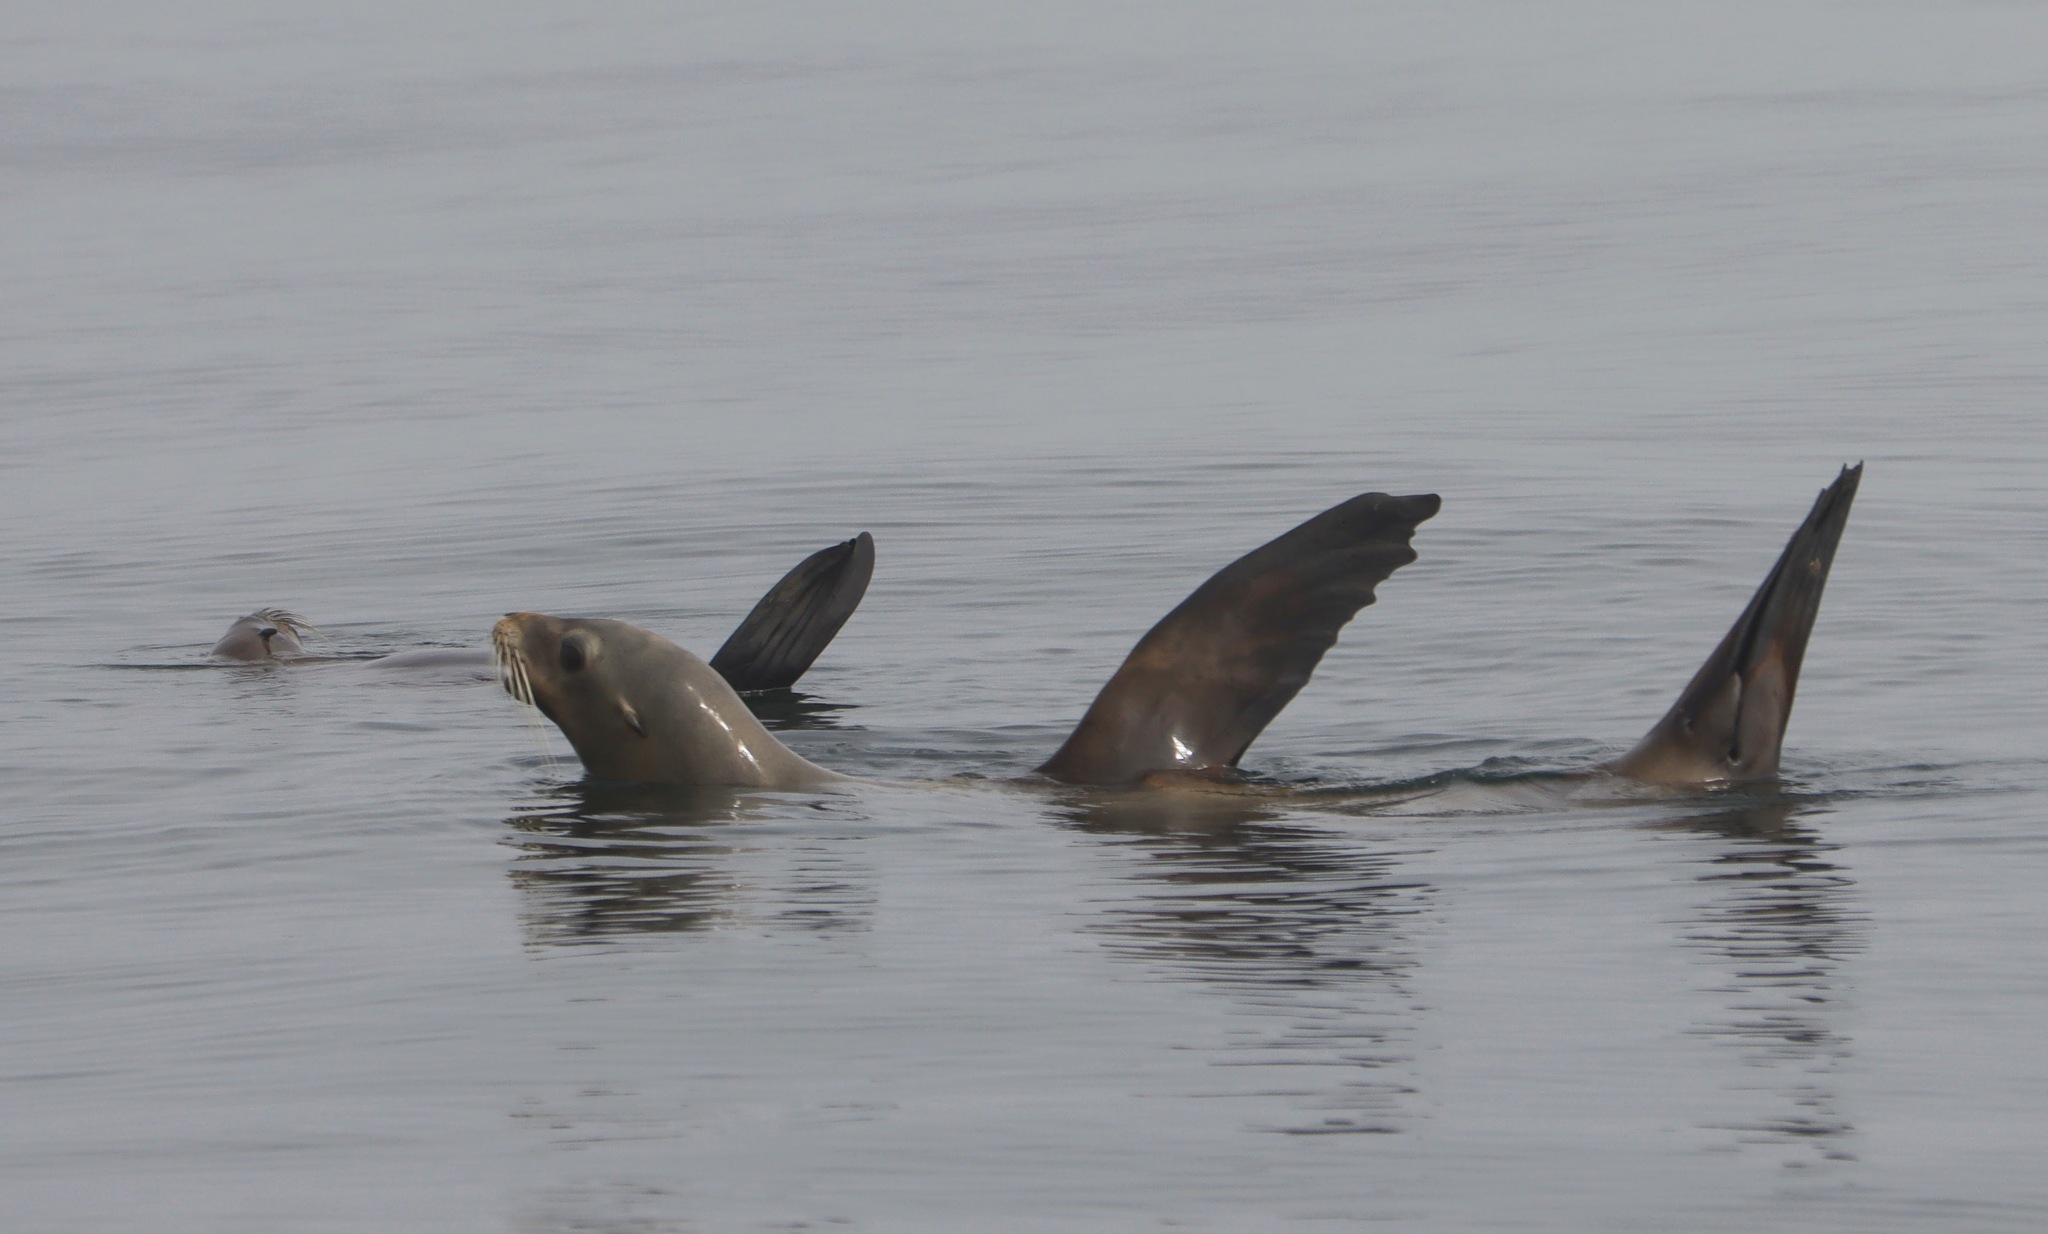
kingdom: Animalia
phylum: Chordata
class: Mammalia
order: Carnivora
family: Otariidae
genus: Zalophus
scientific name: Zalophus californianus
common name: California sea lion
